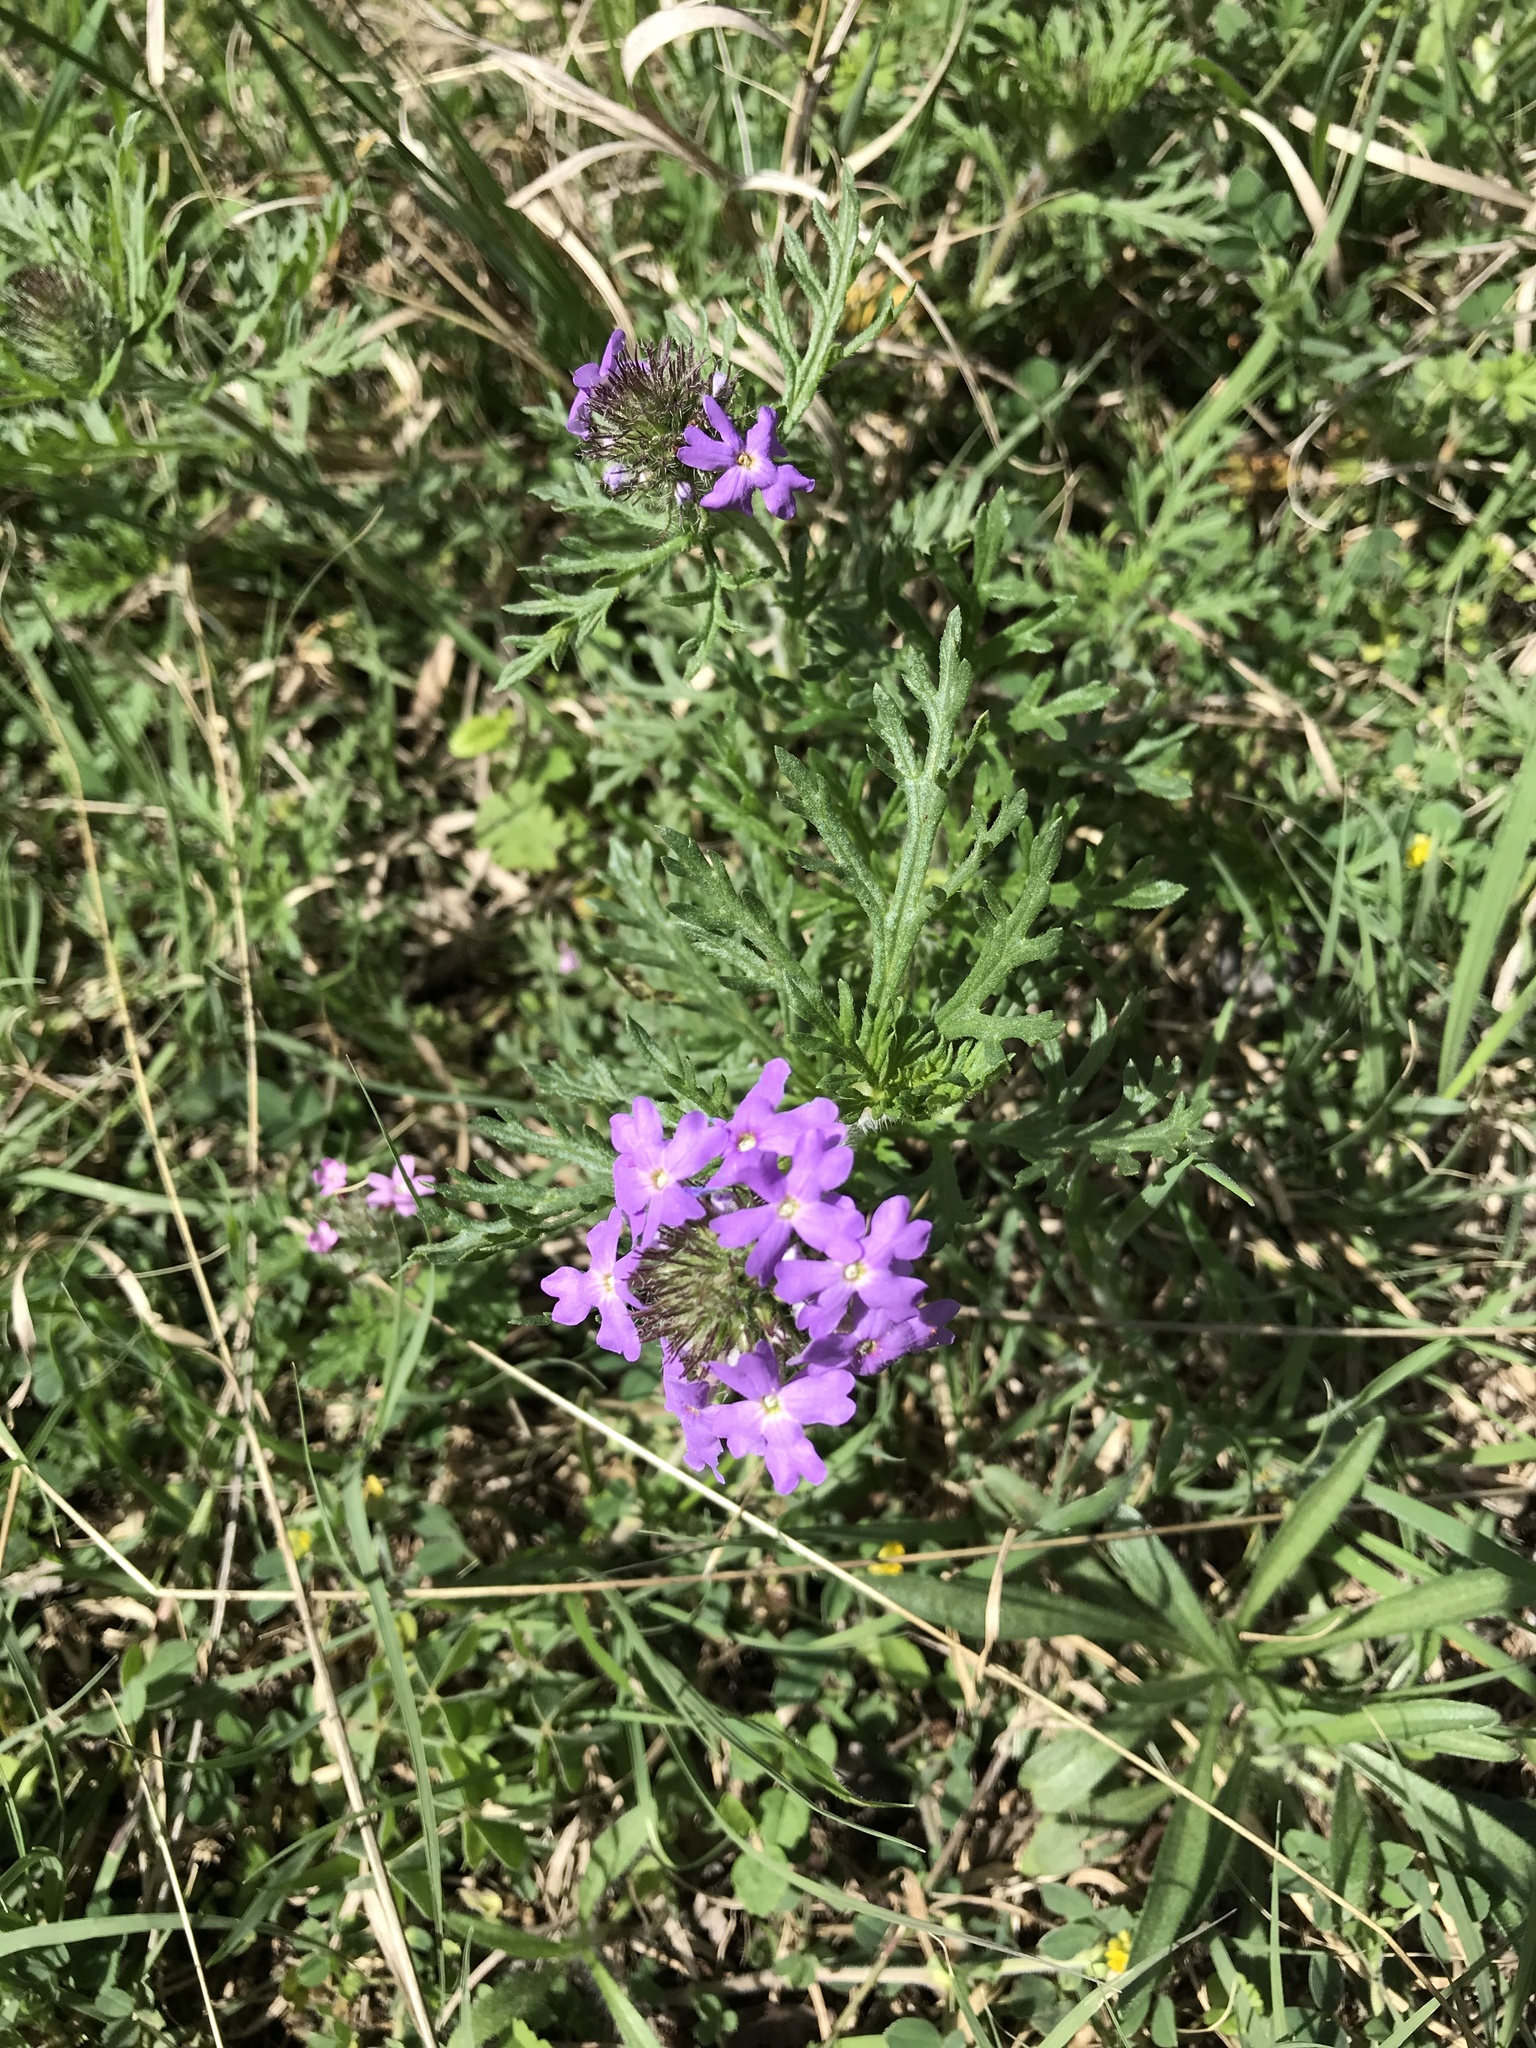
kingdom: Plantae
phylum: Tracheophyta
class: Magnoliopsida
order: Lamiales
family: Verbenaceae
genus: Verbena
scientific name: Verbena bipinnatifida
